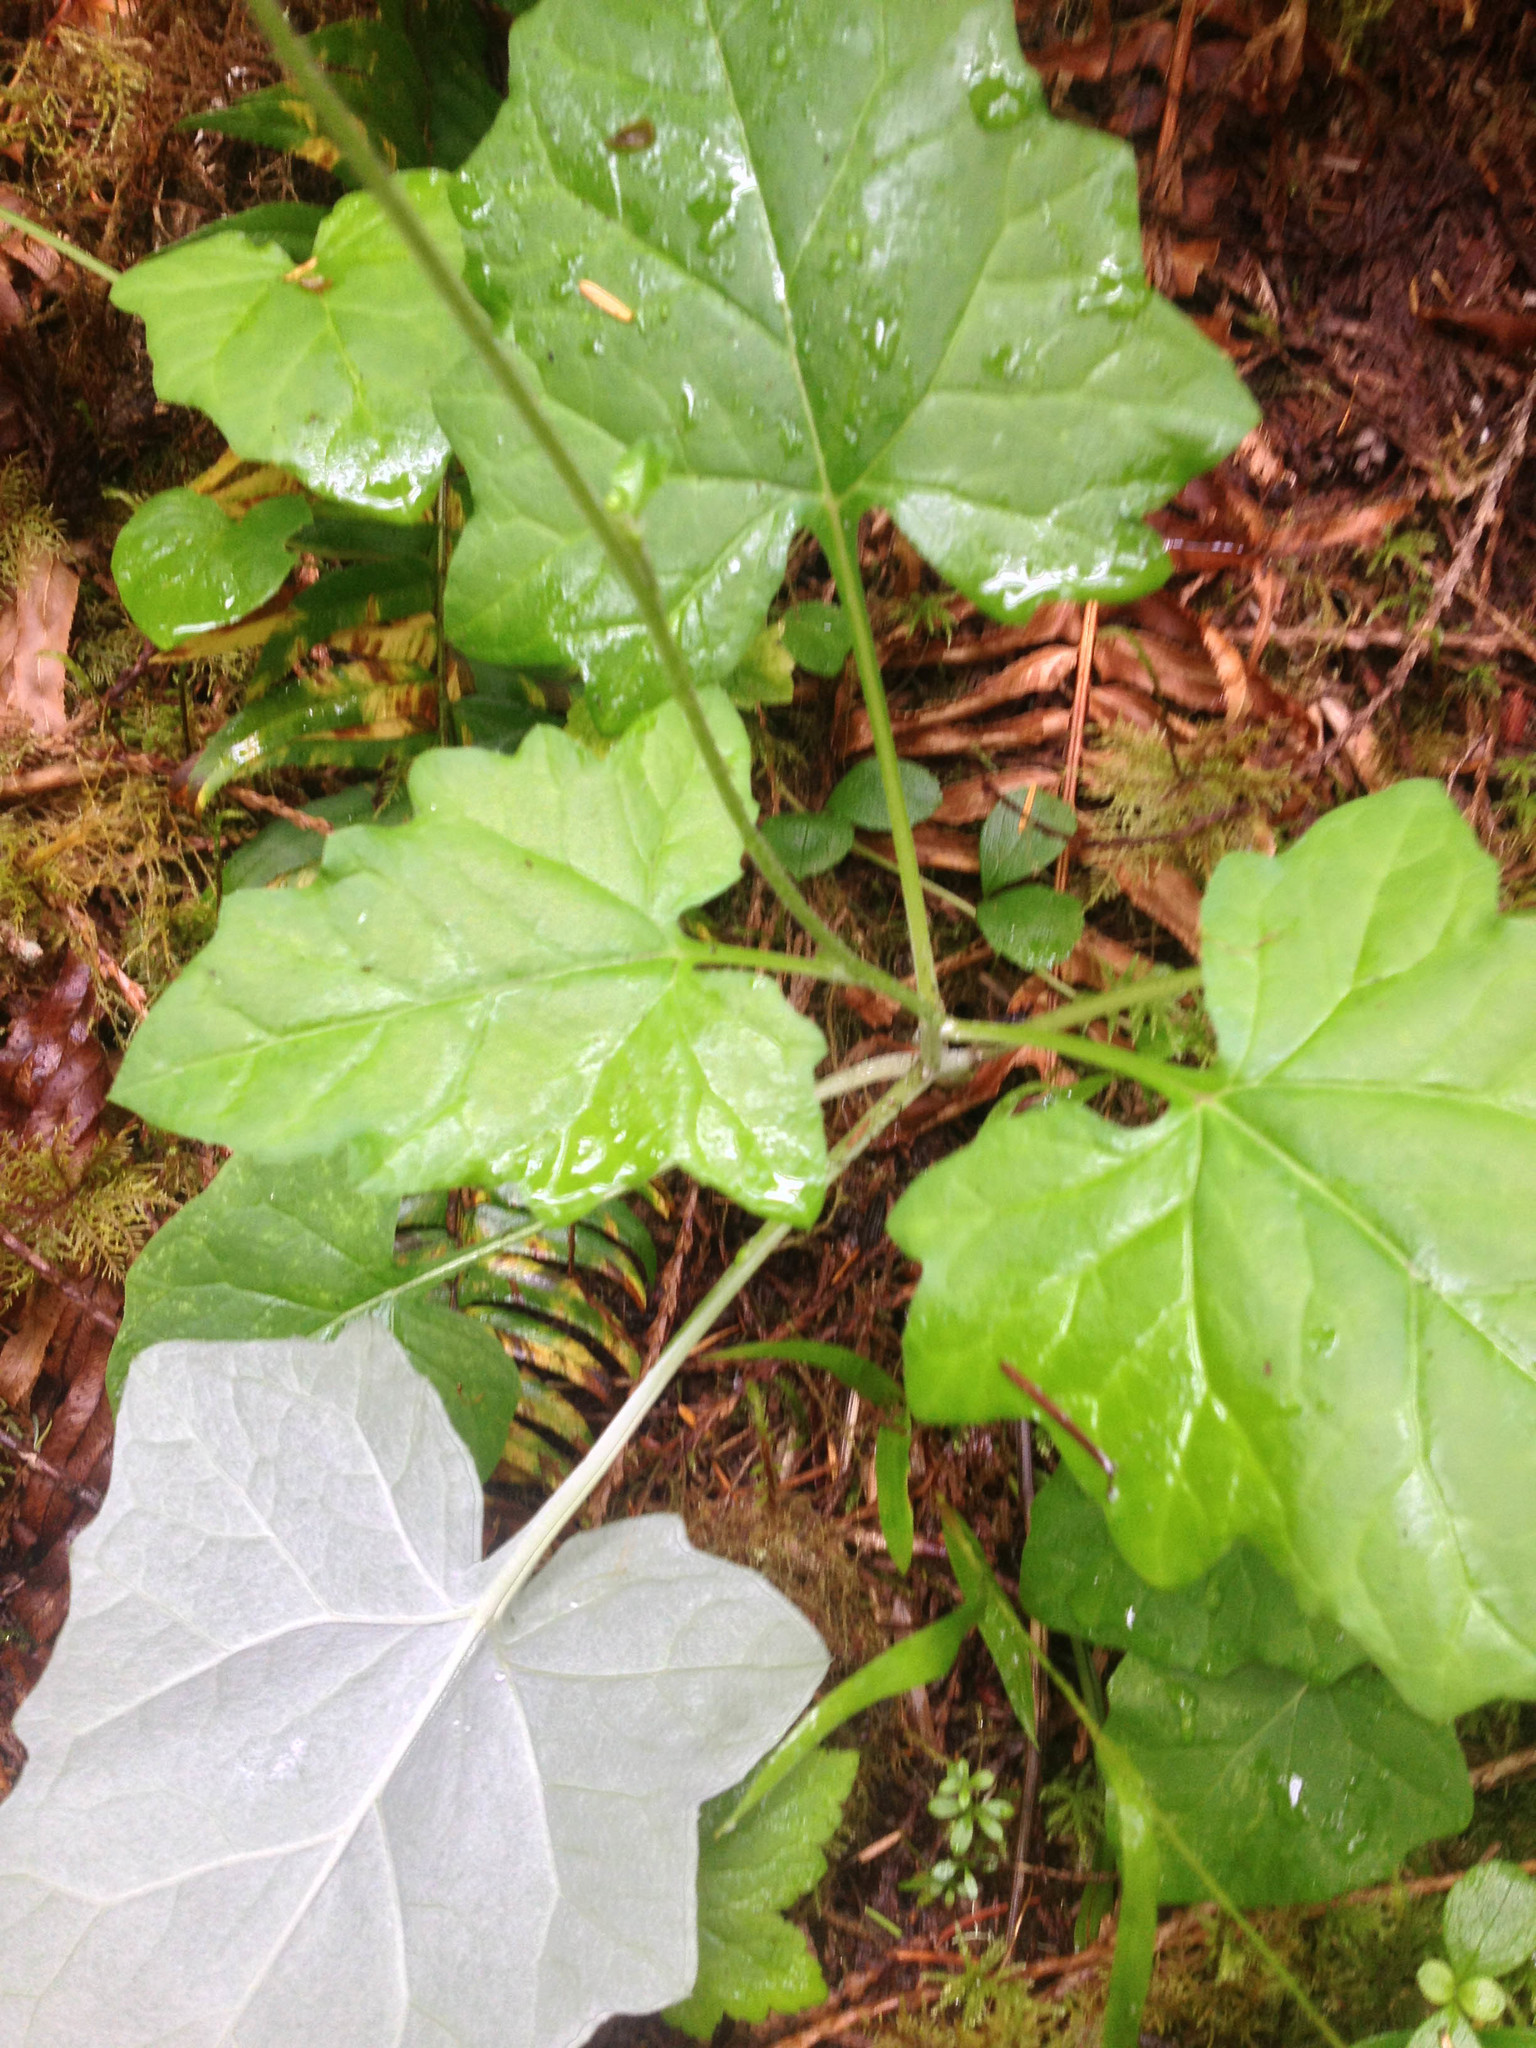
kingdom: Plantae
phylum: Tracheophyta
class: Magnoliopsida
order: Asterales
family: Asteraceae
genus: Adenocaulon
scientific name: Adenocaulon bicolor
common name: Trailplant
